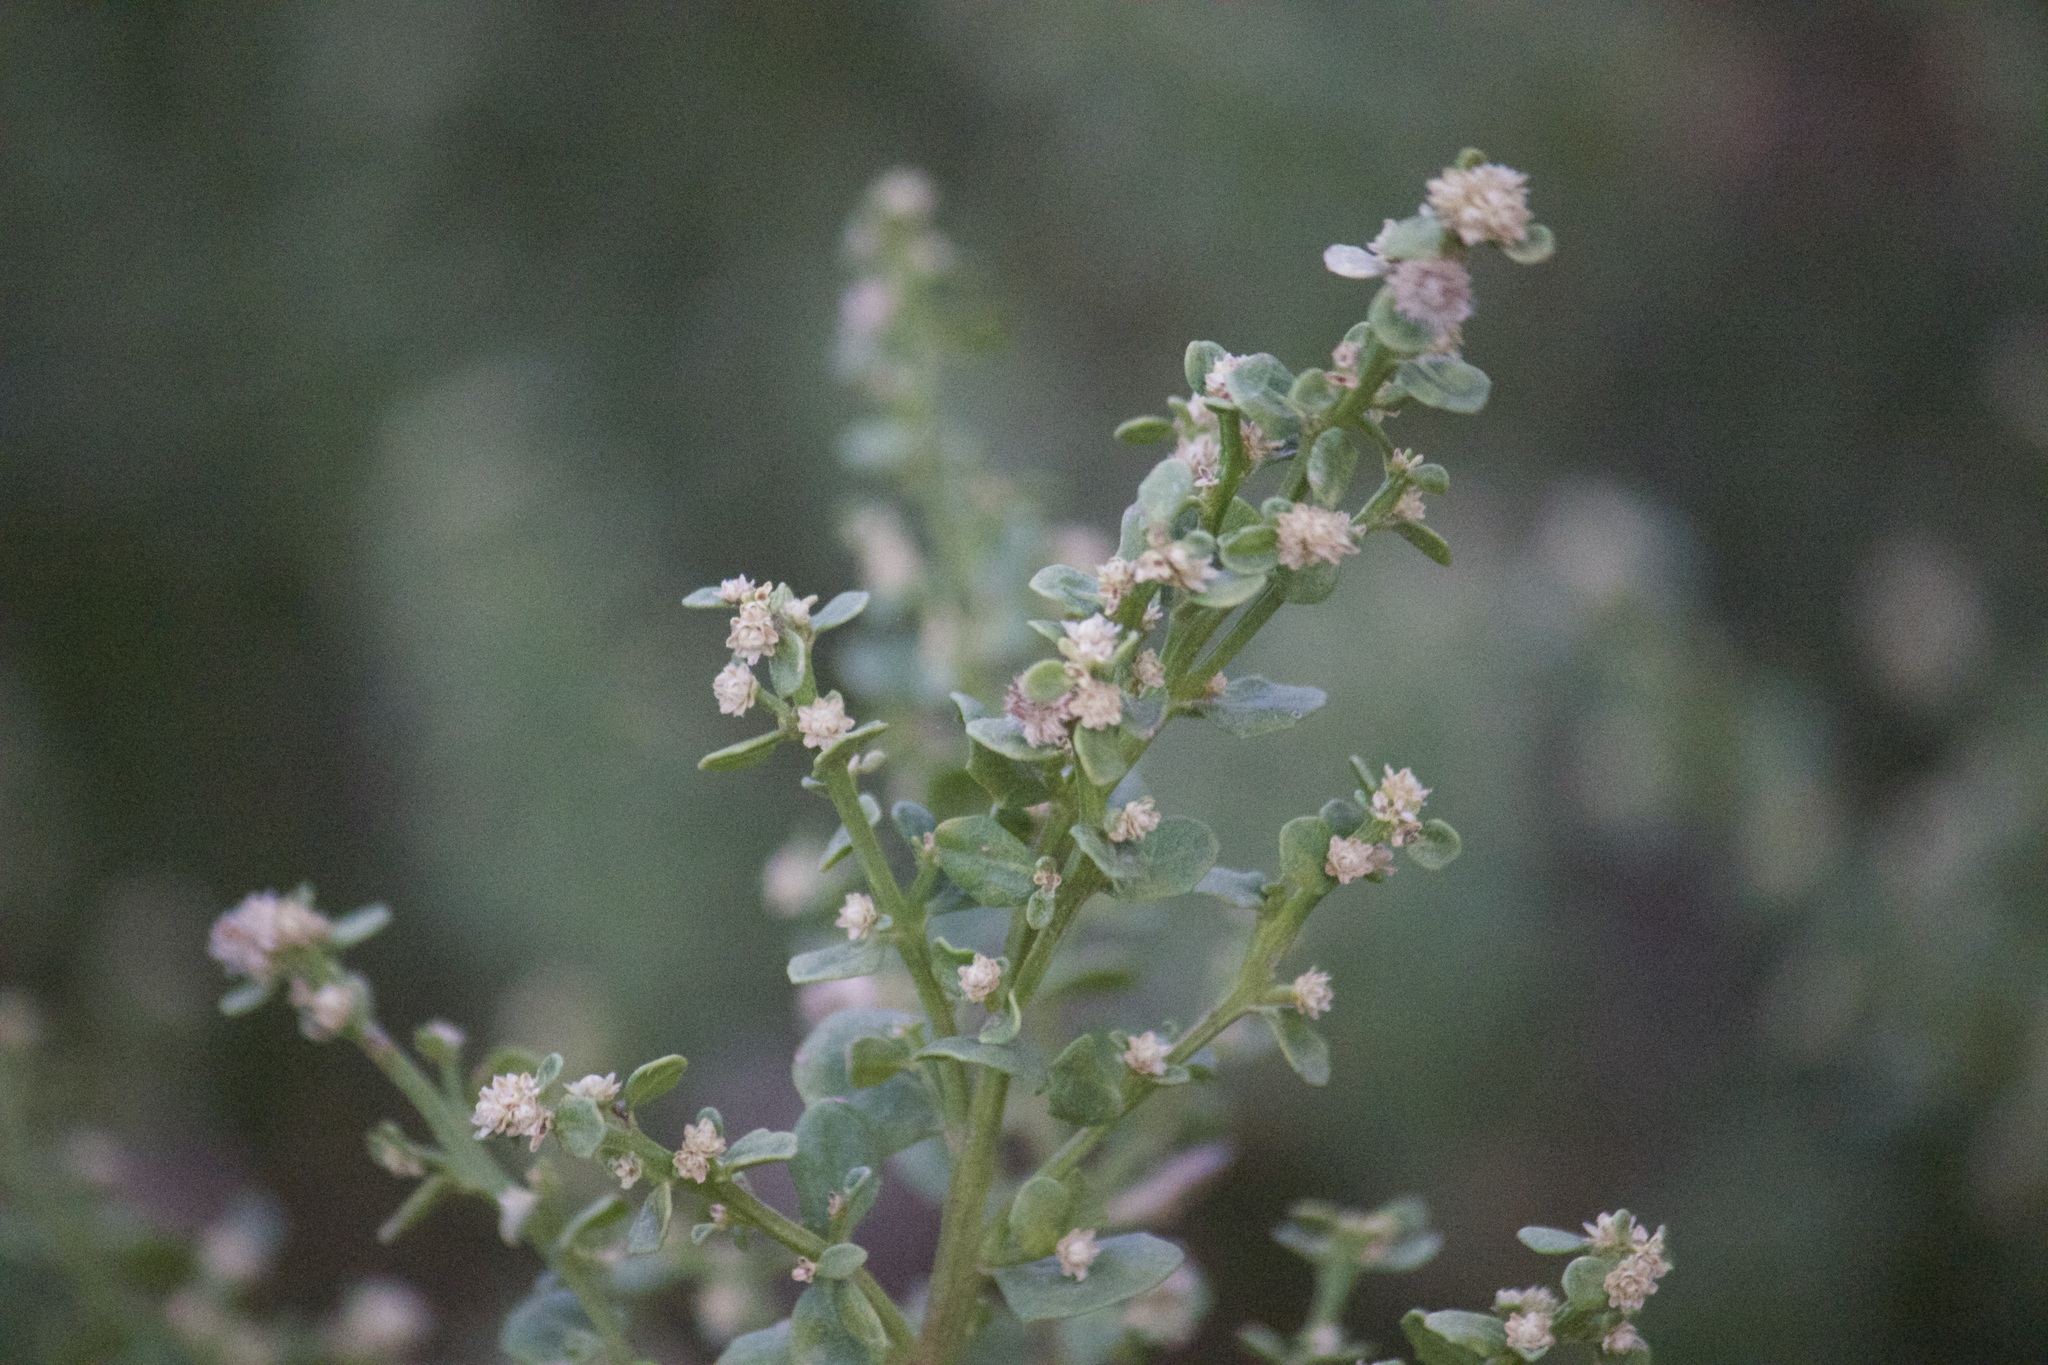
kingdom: Plantae
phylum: Tracheophyta
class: Magnoliopsida
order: Asterales
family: Asteraceae
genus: Baccharis
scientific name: Baccharis pilularis
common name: Coyotebrush
